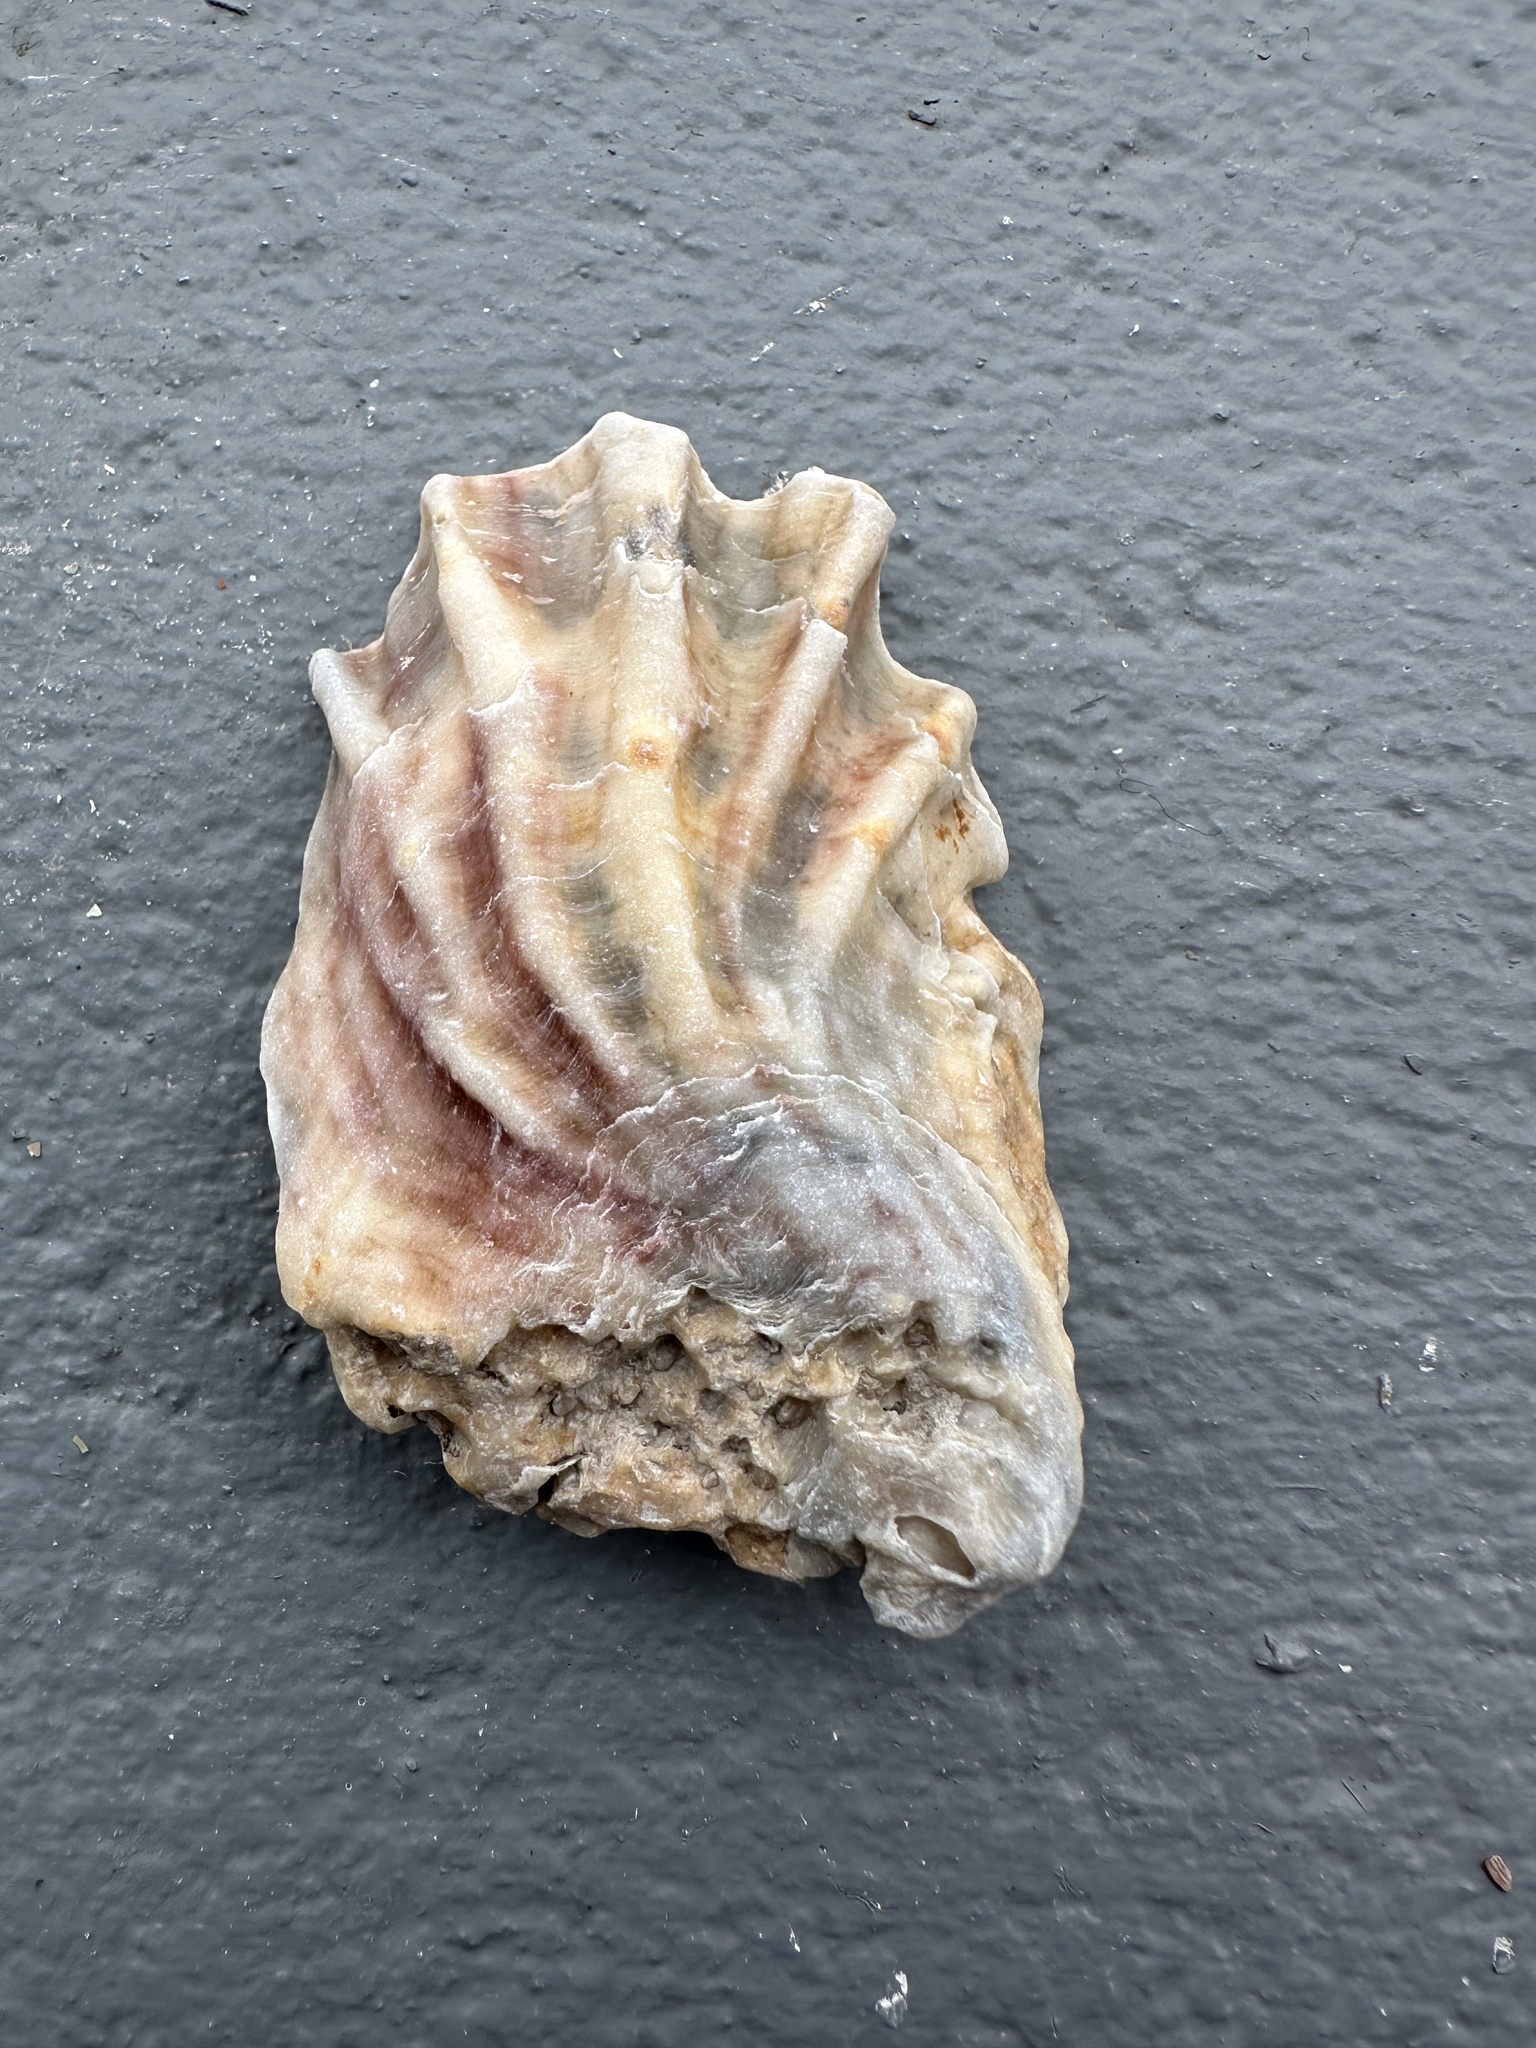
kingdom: Animalia
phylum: Mollusca
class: Bivalvia
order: Ostreida
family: Ostreidae
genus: Crassostrea
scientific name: Crassostrea virginica
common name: American oyster
